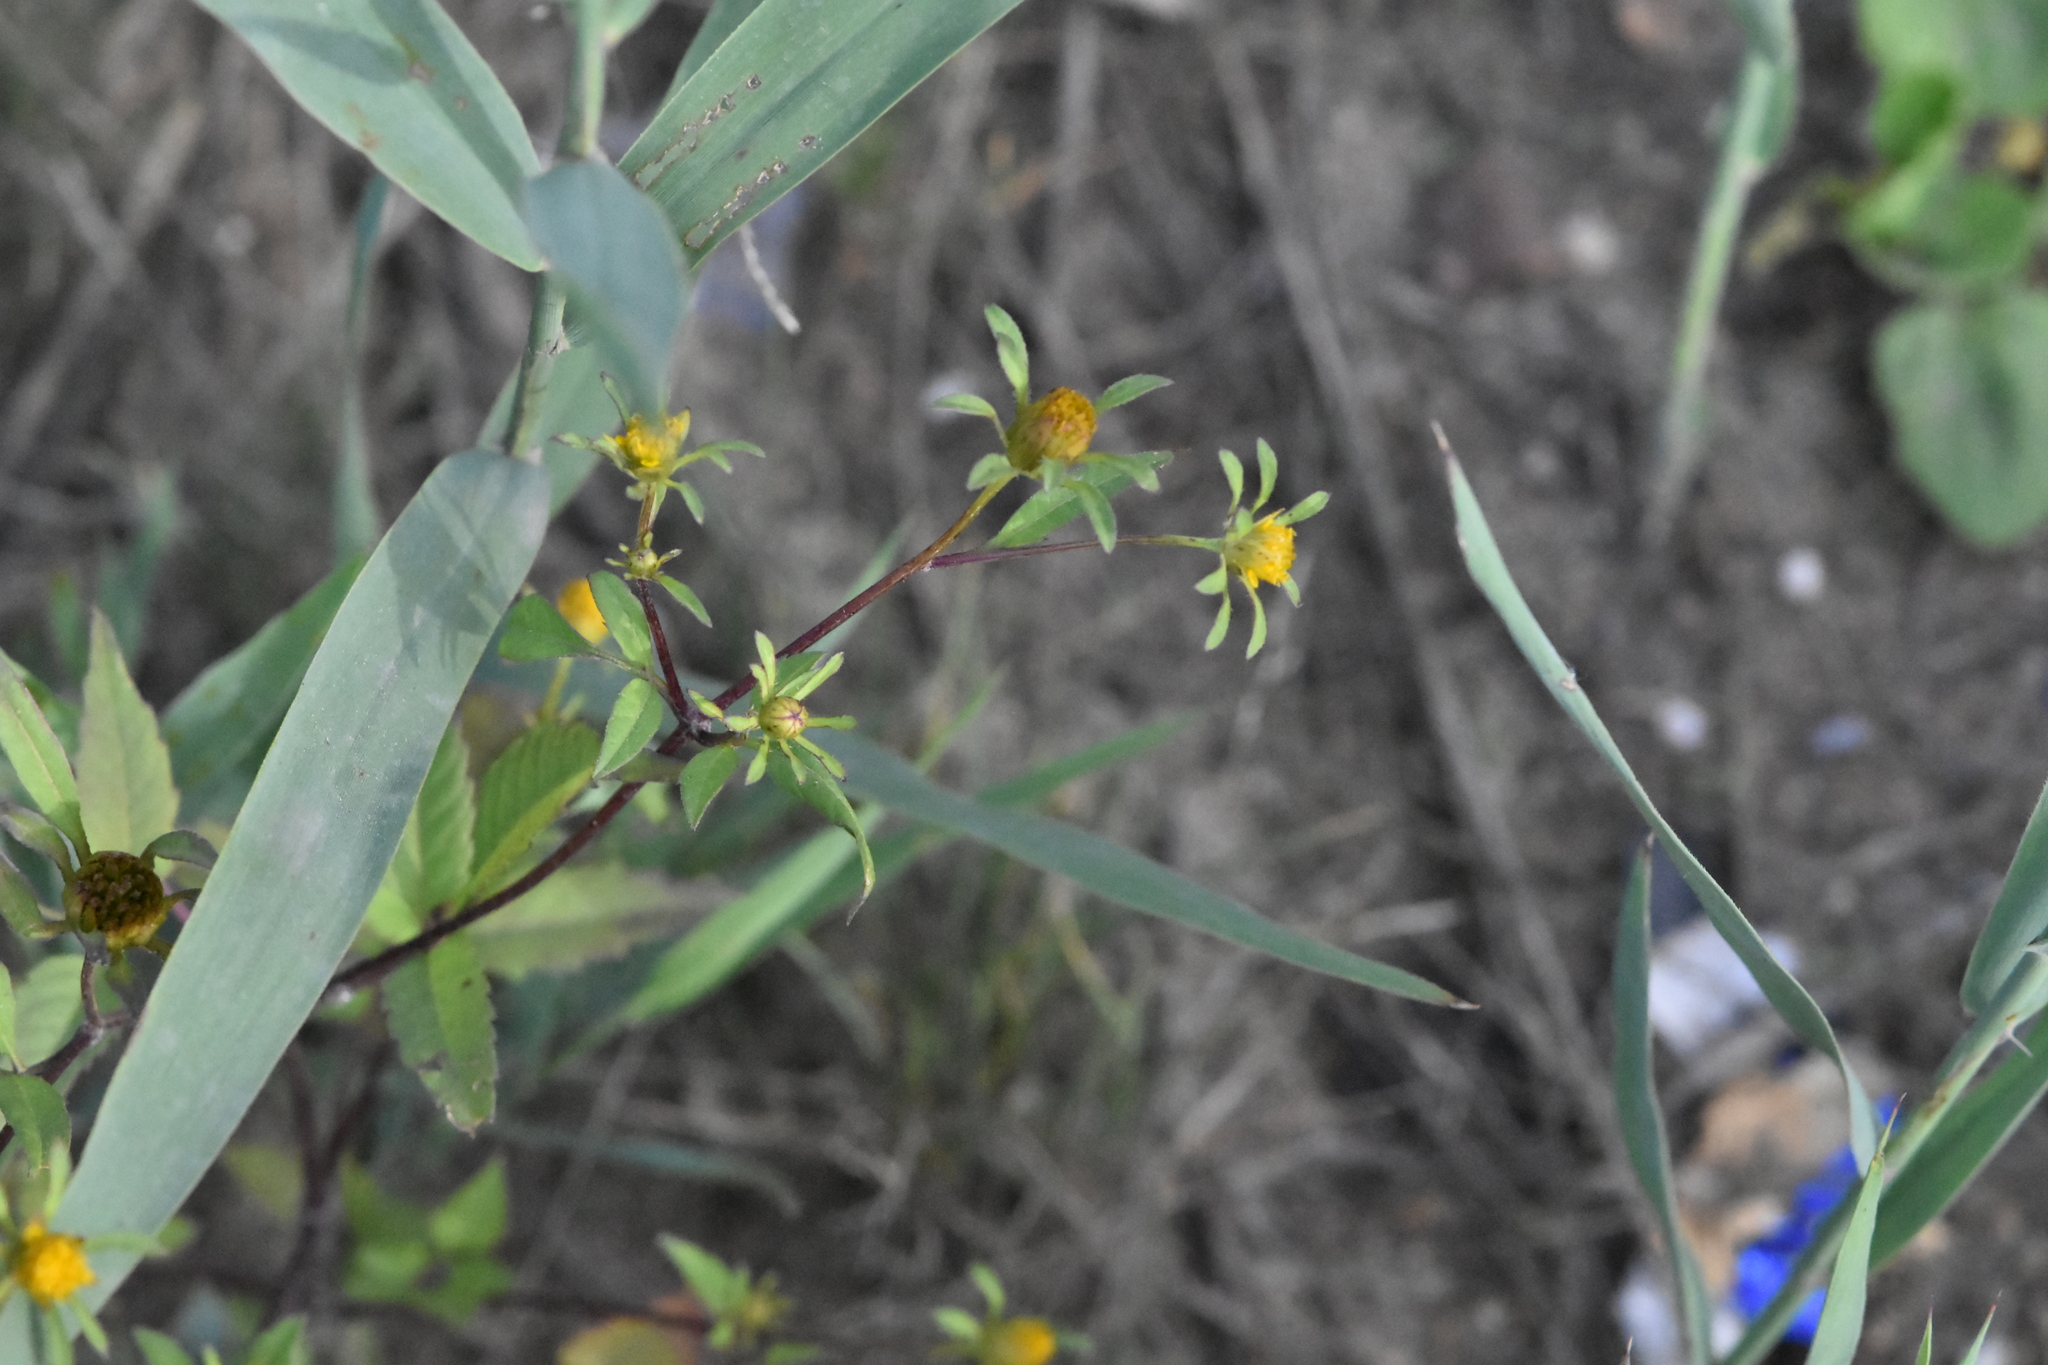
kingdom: Plantae
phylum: Tracheophyta
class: Magnoliopsida
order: Asterales
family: Asteraceae
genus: Bidens
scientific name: Bidens frondosa
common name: Beggarticks
